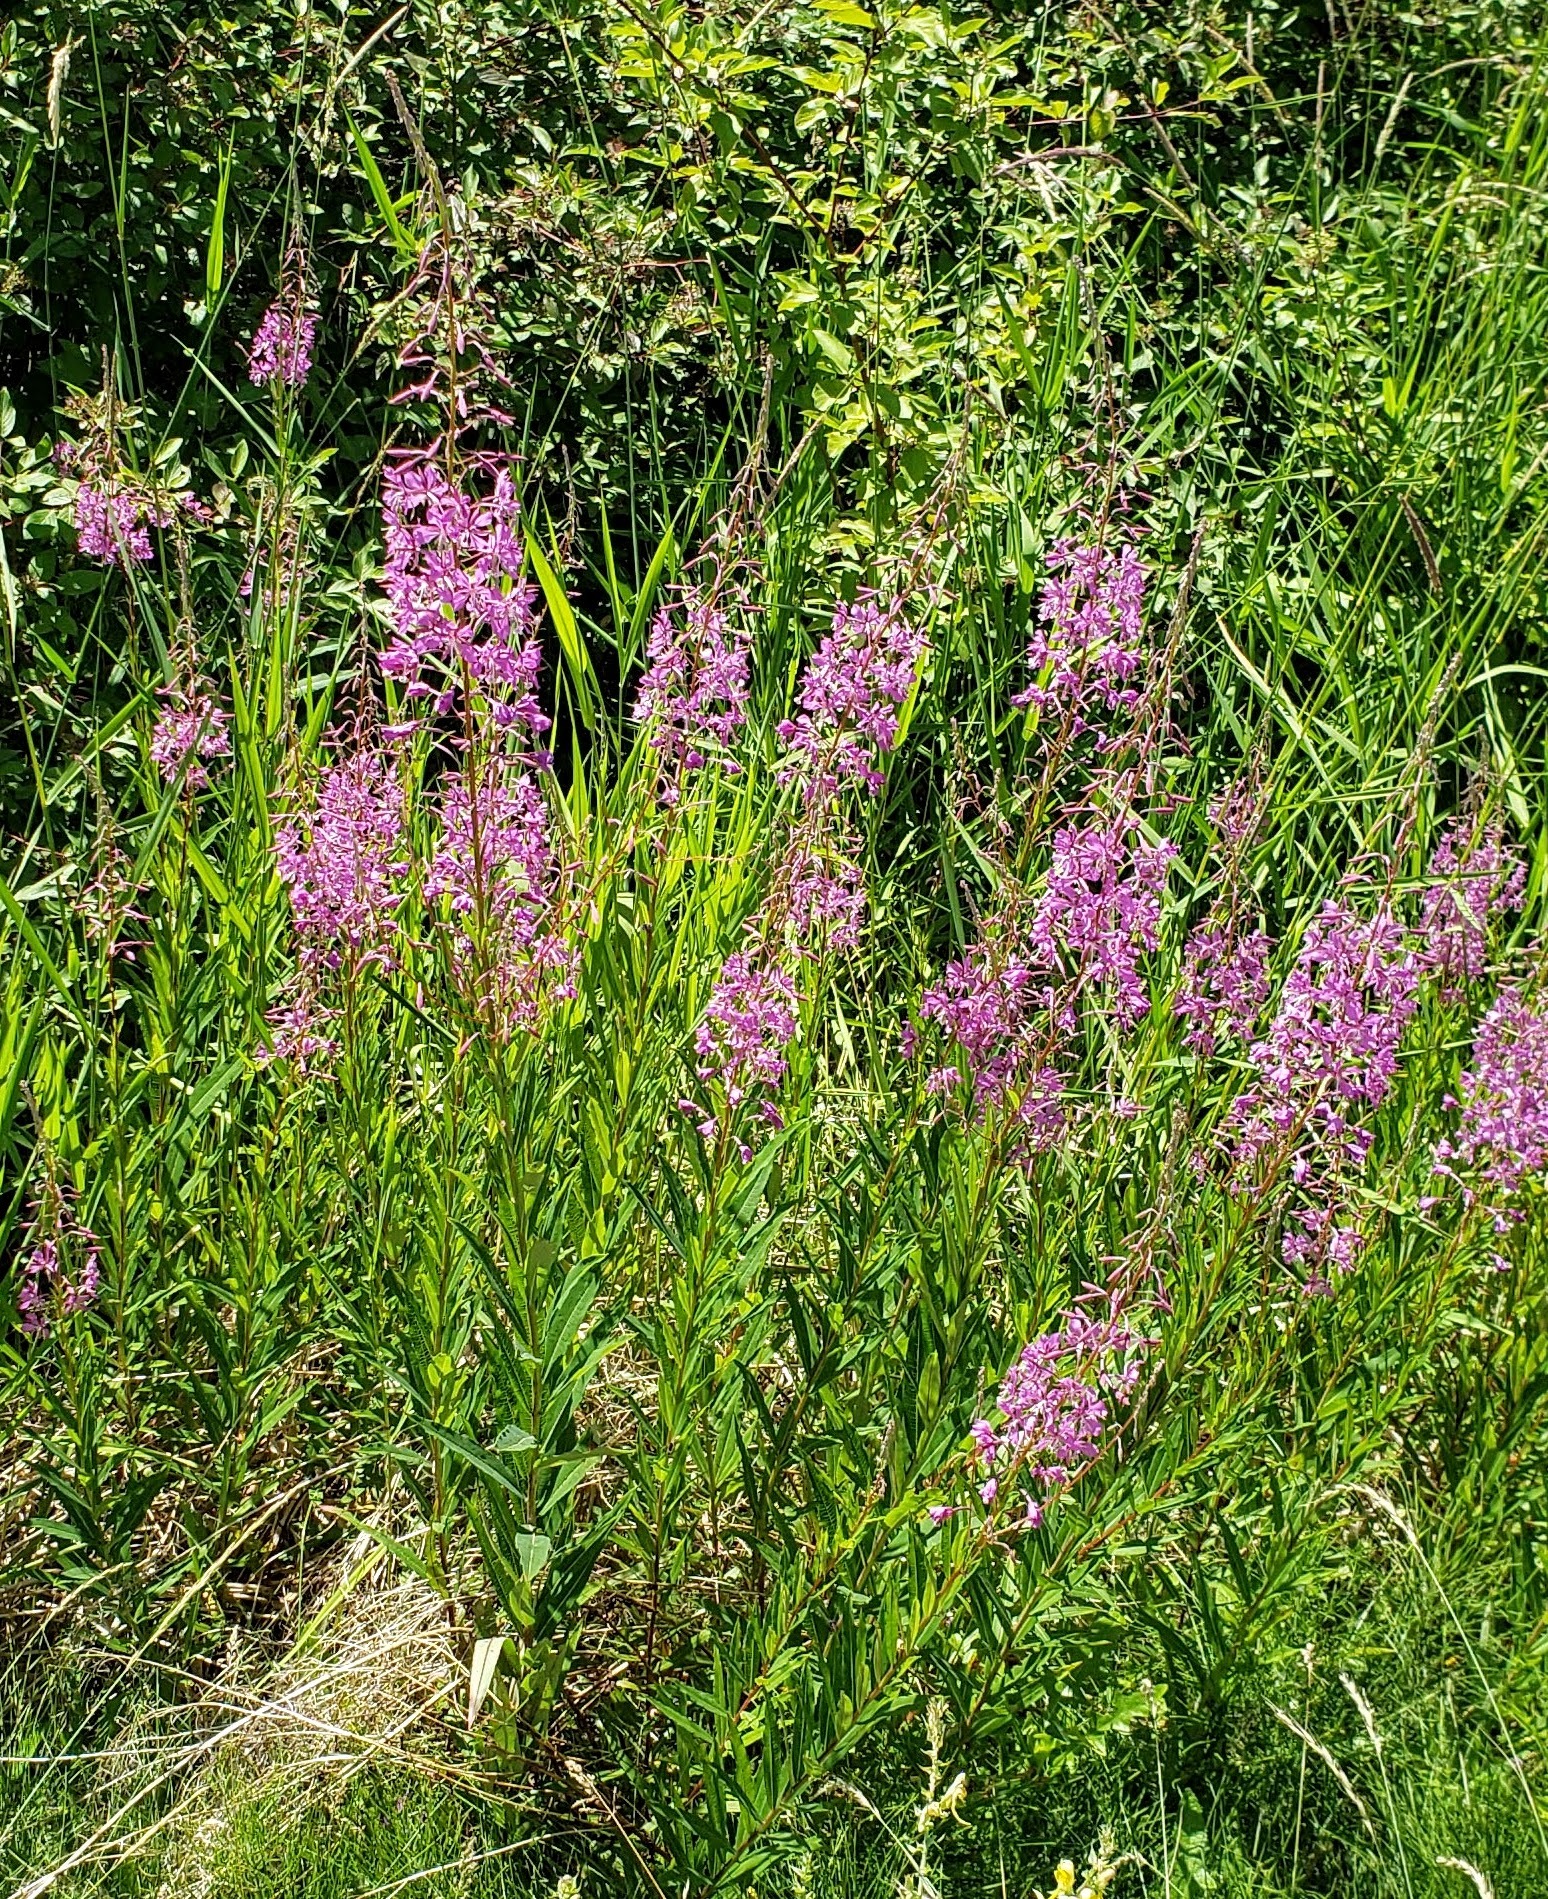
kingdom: Plantae
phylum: Tracheophyta
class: Magnoliopsida
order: Myrtales
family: Onagraceae
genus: Chamaenerion
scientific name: Chamaenerion angustifolium
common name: Fireweed
